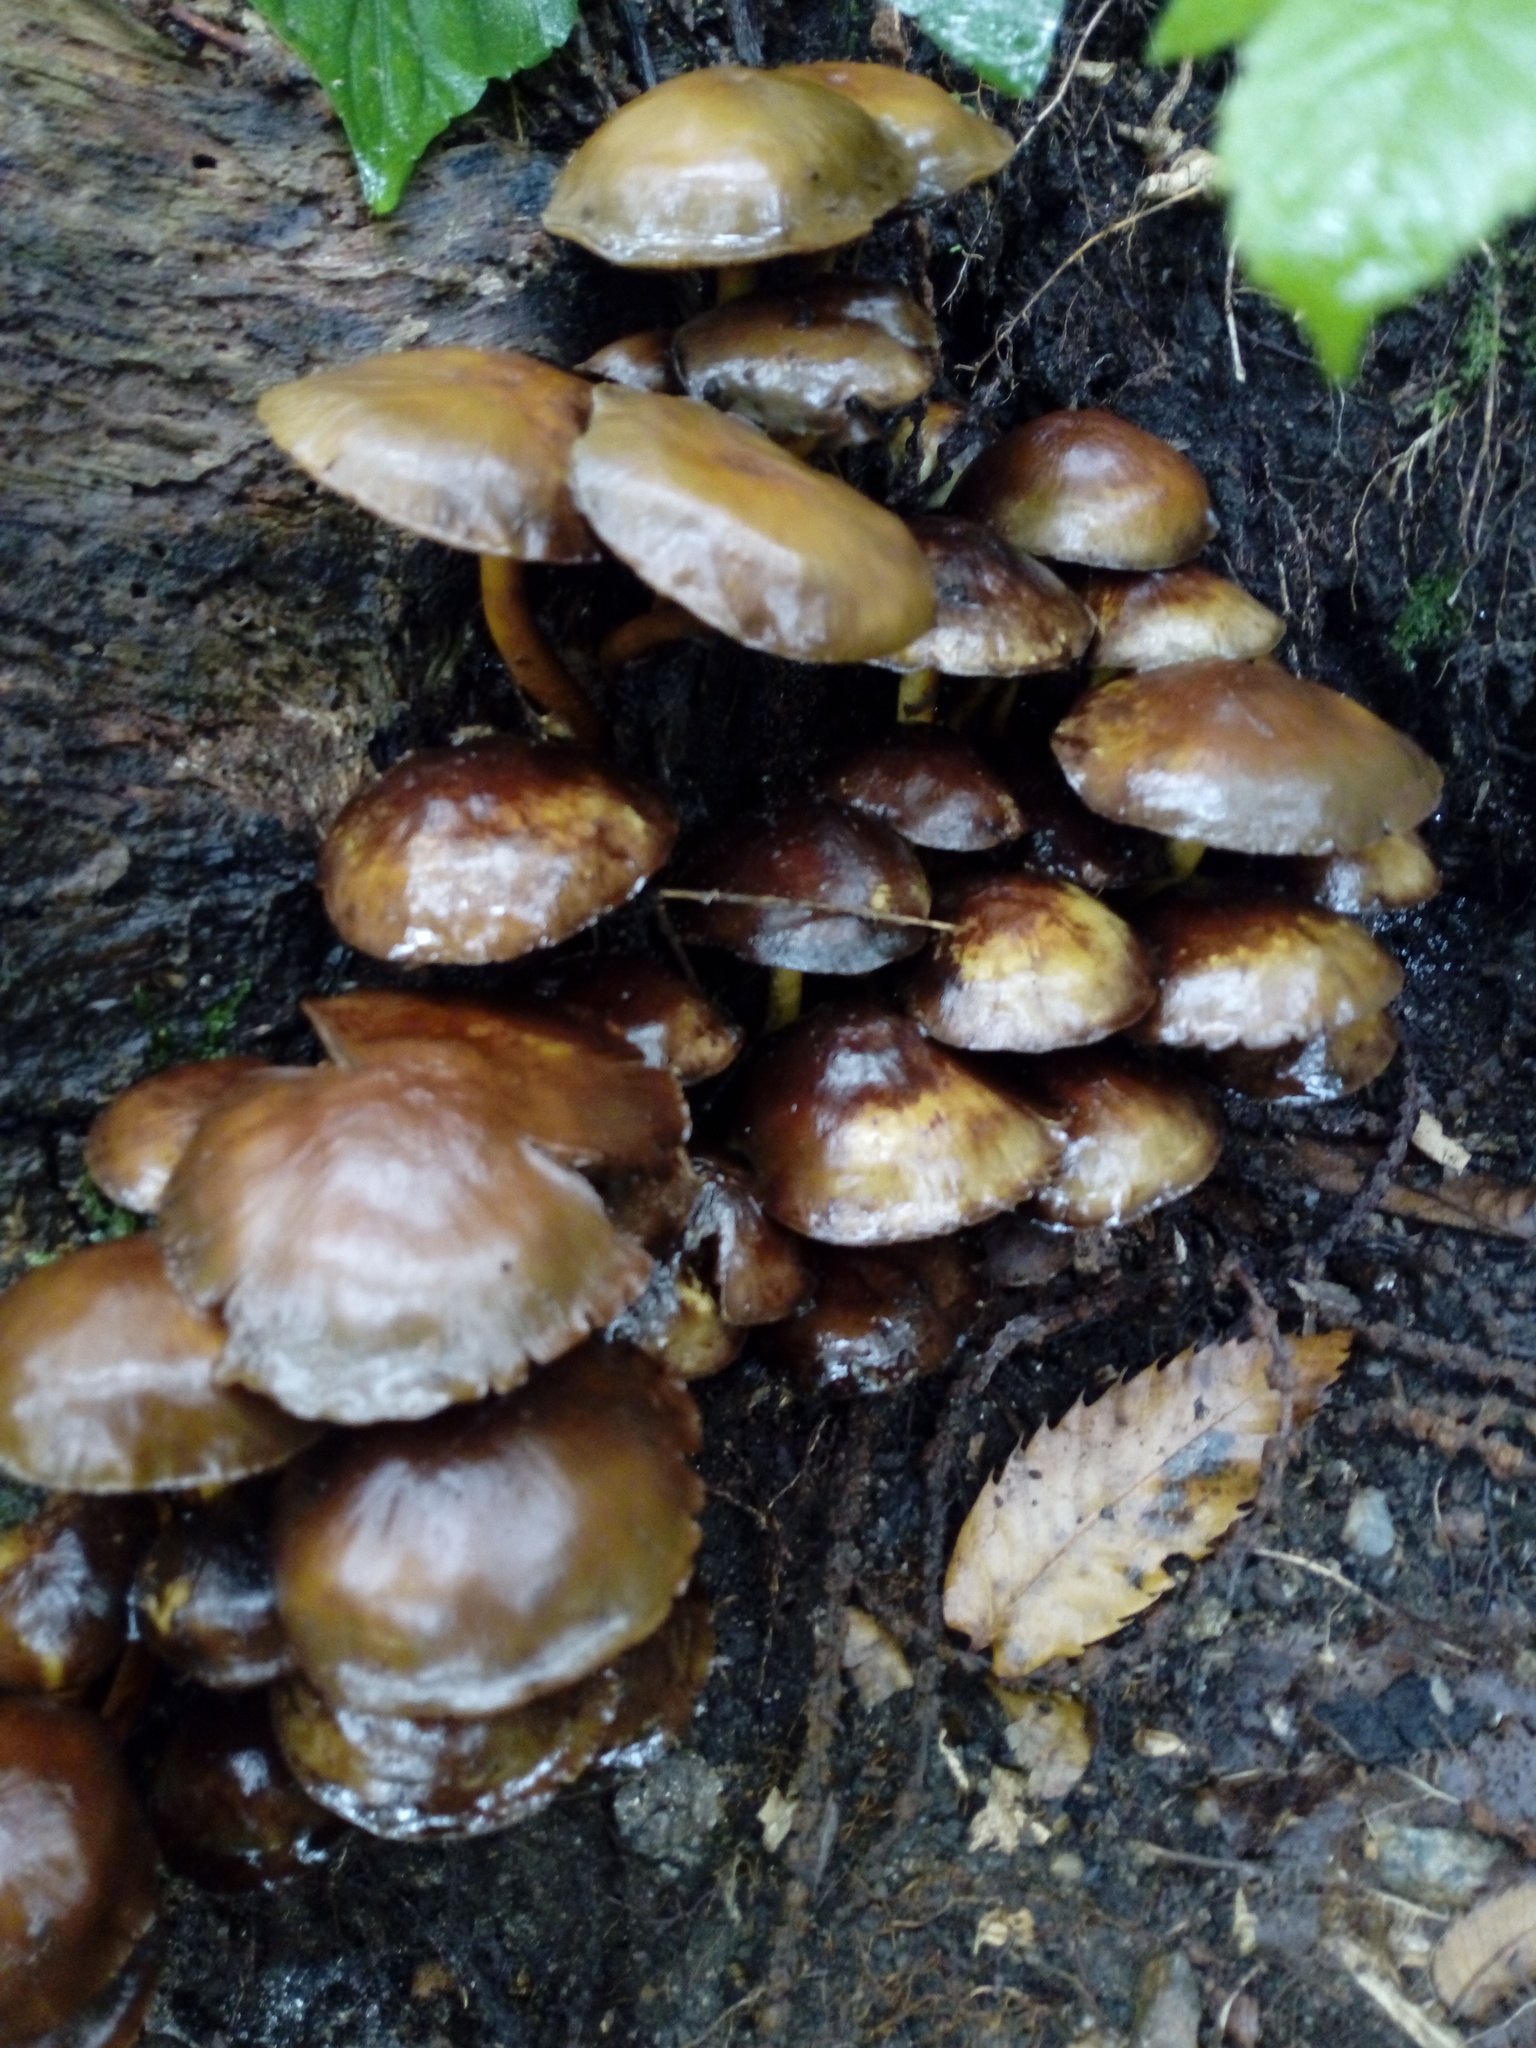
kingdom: Fungi
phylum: Basidiomycota
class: Agaricomycetes
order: Agaricales
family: Strophariaceae
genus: Hypholoma
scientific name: Hypholoma fasciculare
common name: Sulphur tuft
